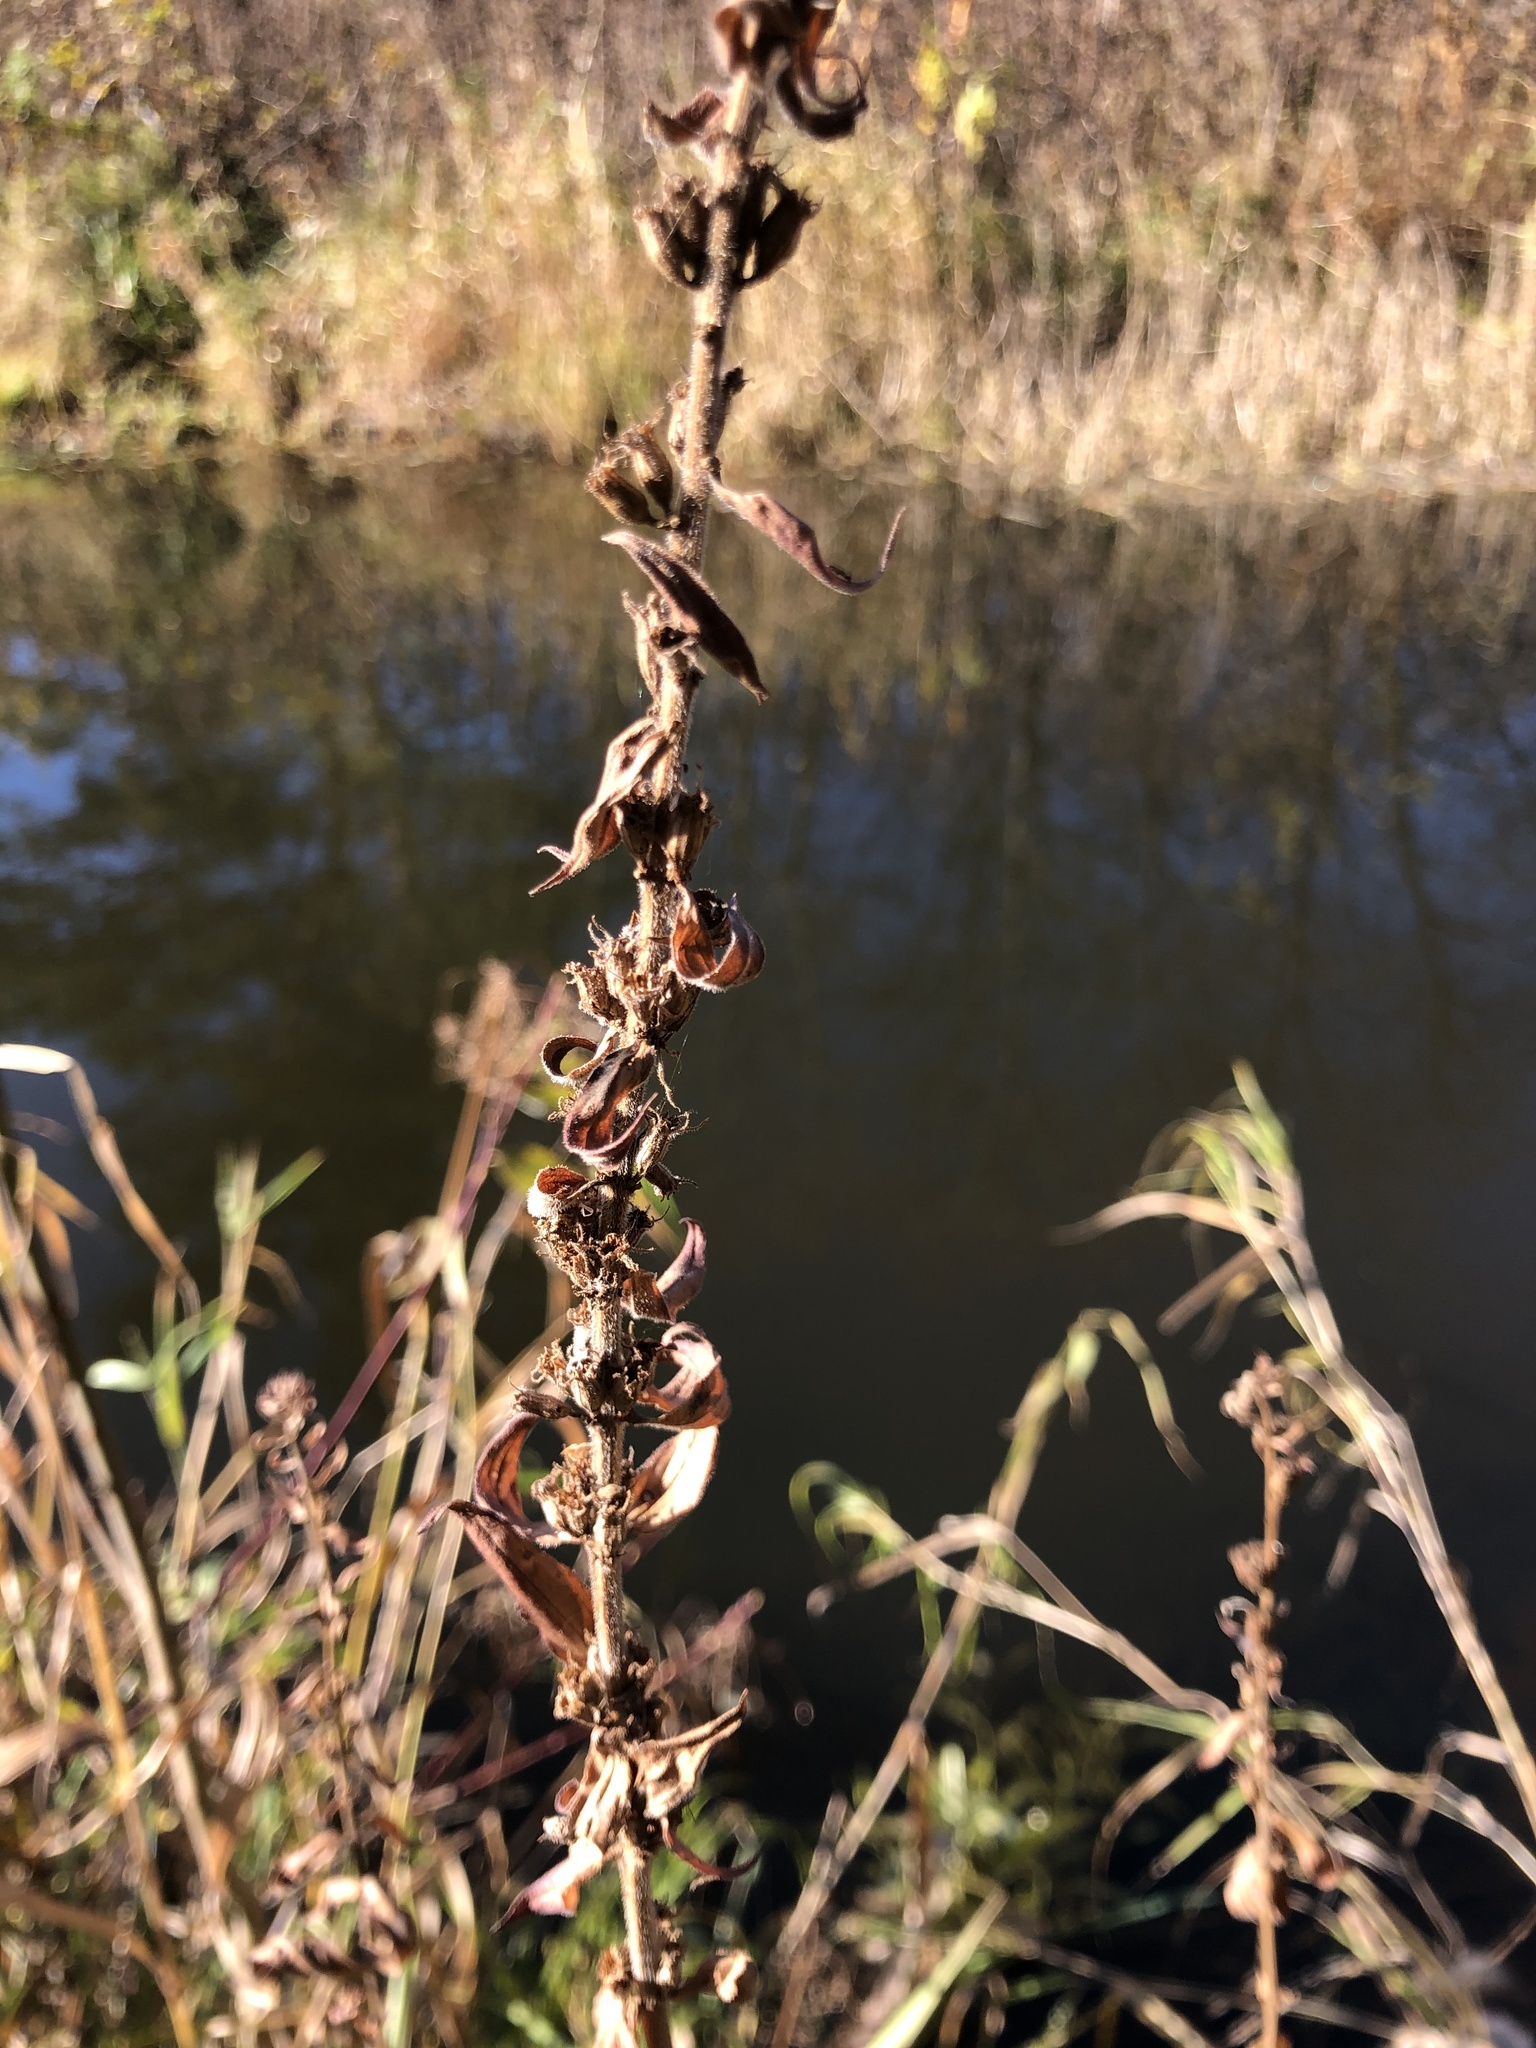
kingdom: Plantae
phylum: Tracheophyta
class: Magnoliopsida
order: Myrtales
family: Lythraceae
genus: Lythrum
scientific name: Lythrum salicaria
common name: Purple loosestrife
